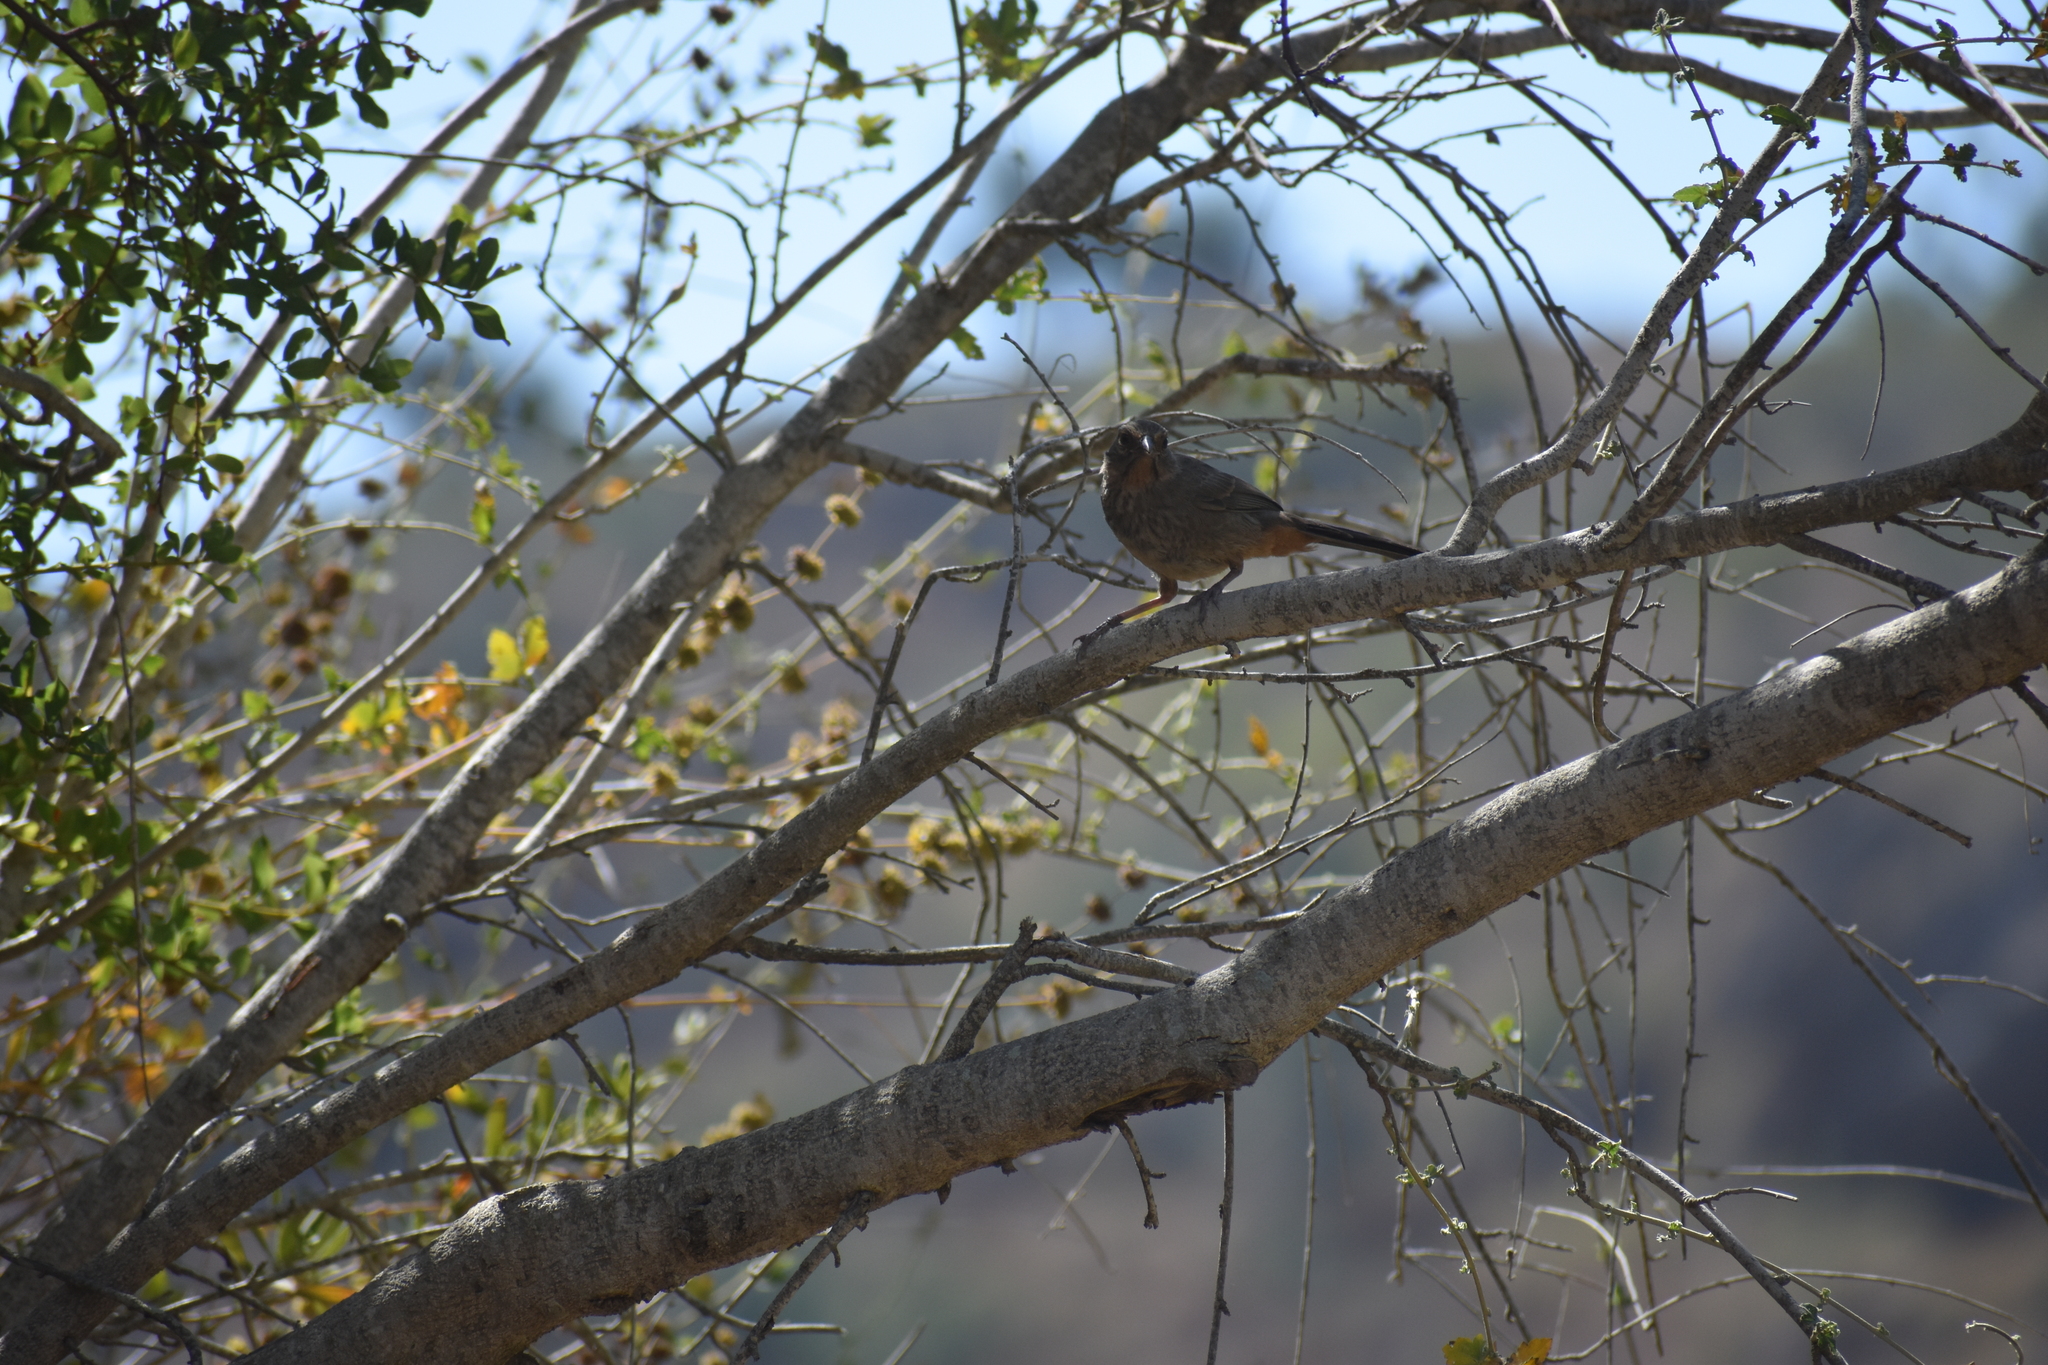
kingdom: Animalia
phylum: Chordata
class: Aves
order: Passeriformes
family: Passerellidae
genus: Melozone
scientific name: Melozone crissalis
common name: California towhee
